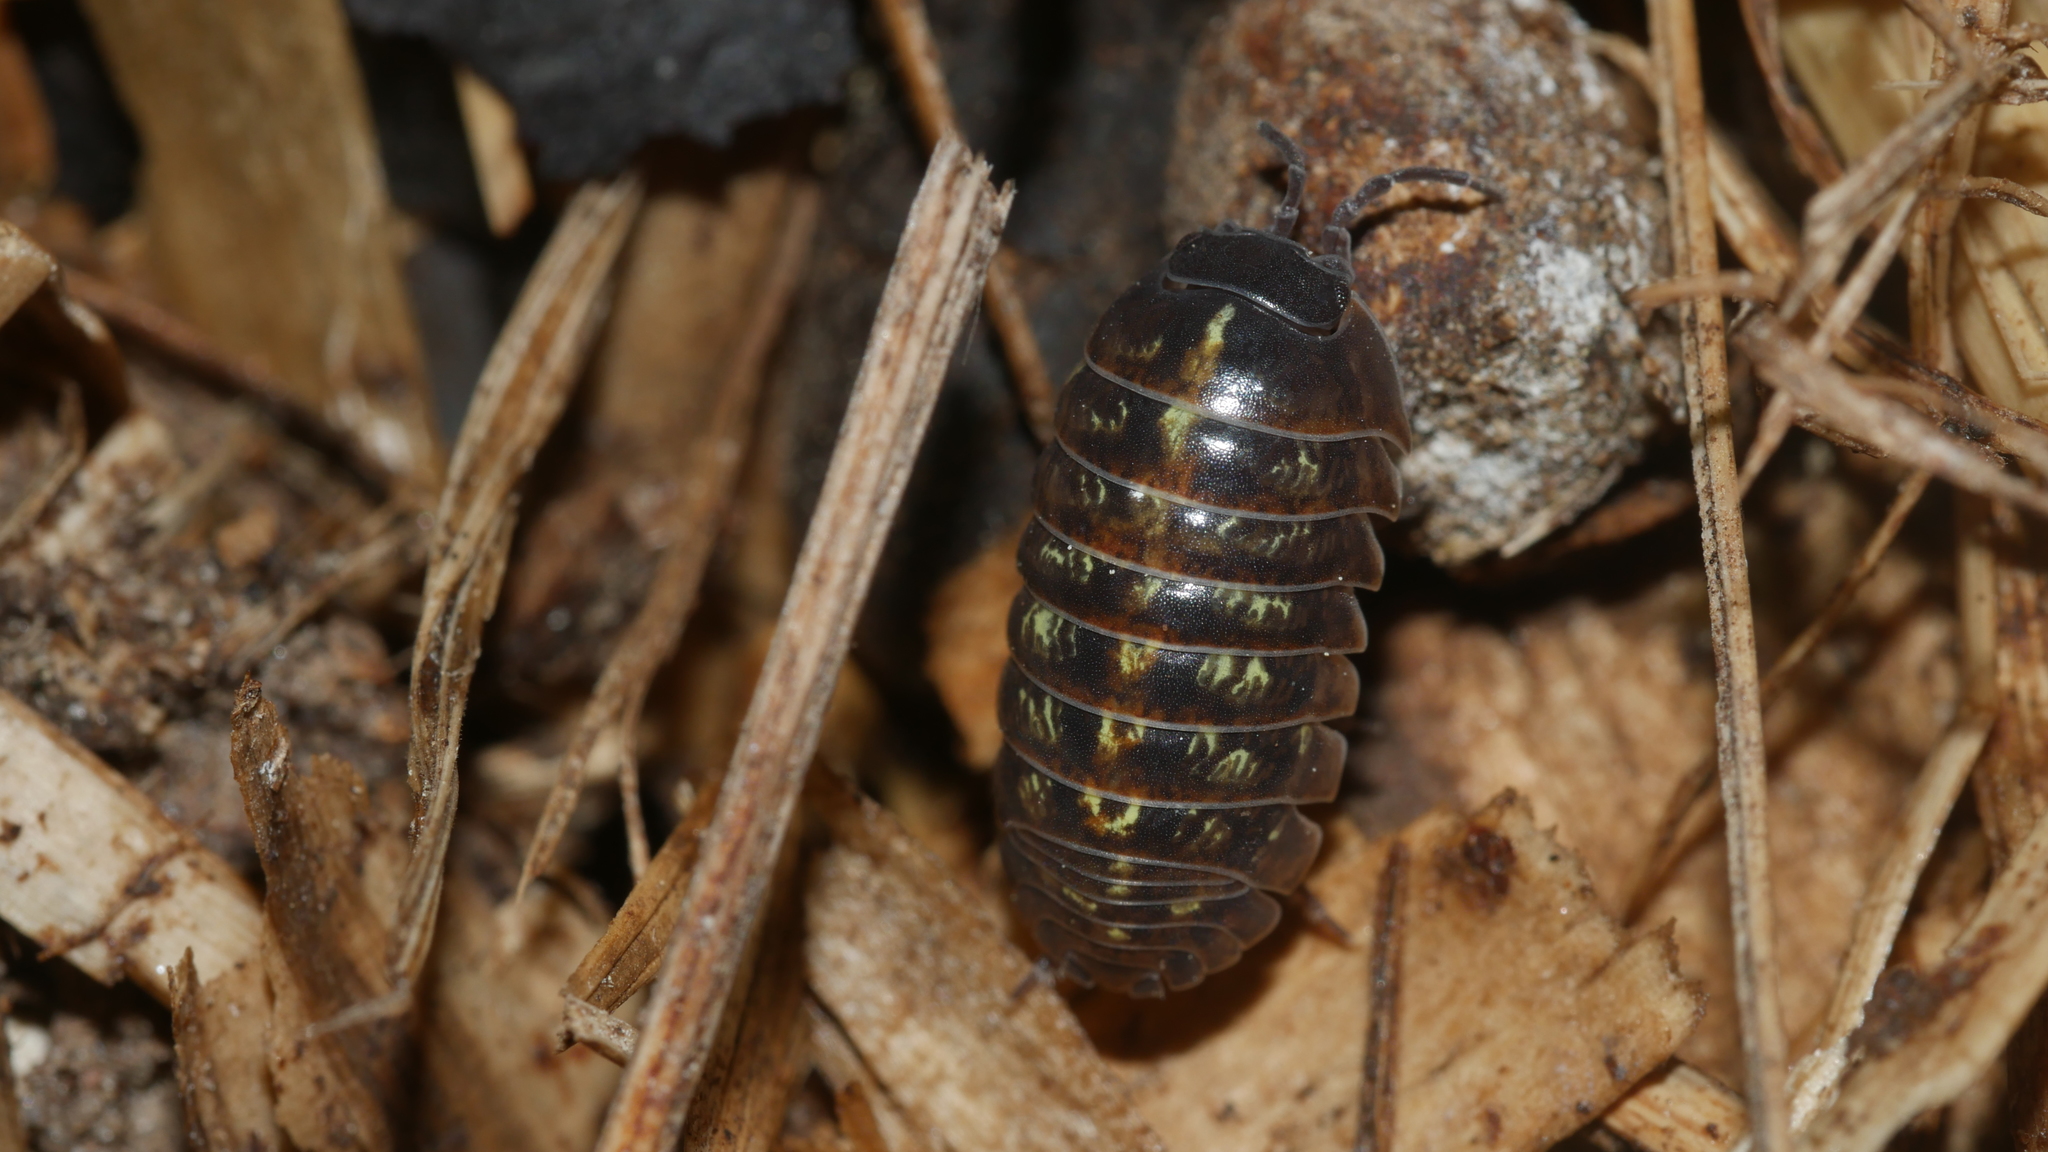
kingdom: Animalia
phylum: Arthropoda
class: Malacostraca
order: Isopoda
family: Armadillidiidae
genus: Armadillidium
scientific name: Armadillidium vulgare
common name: Common pill woodlouse
